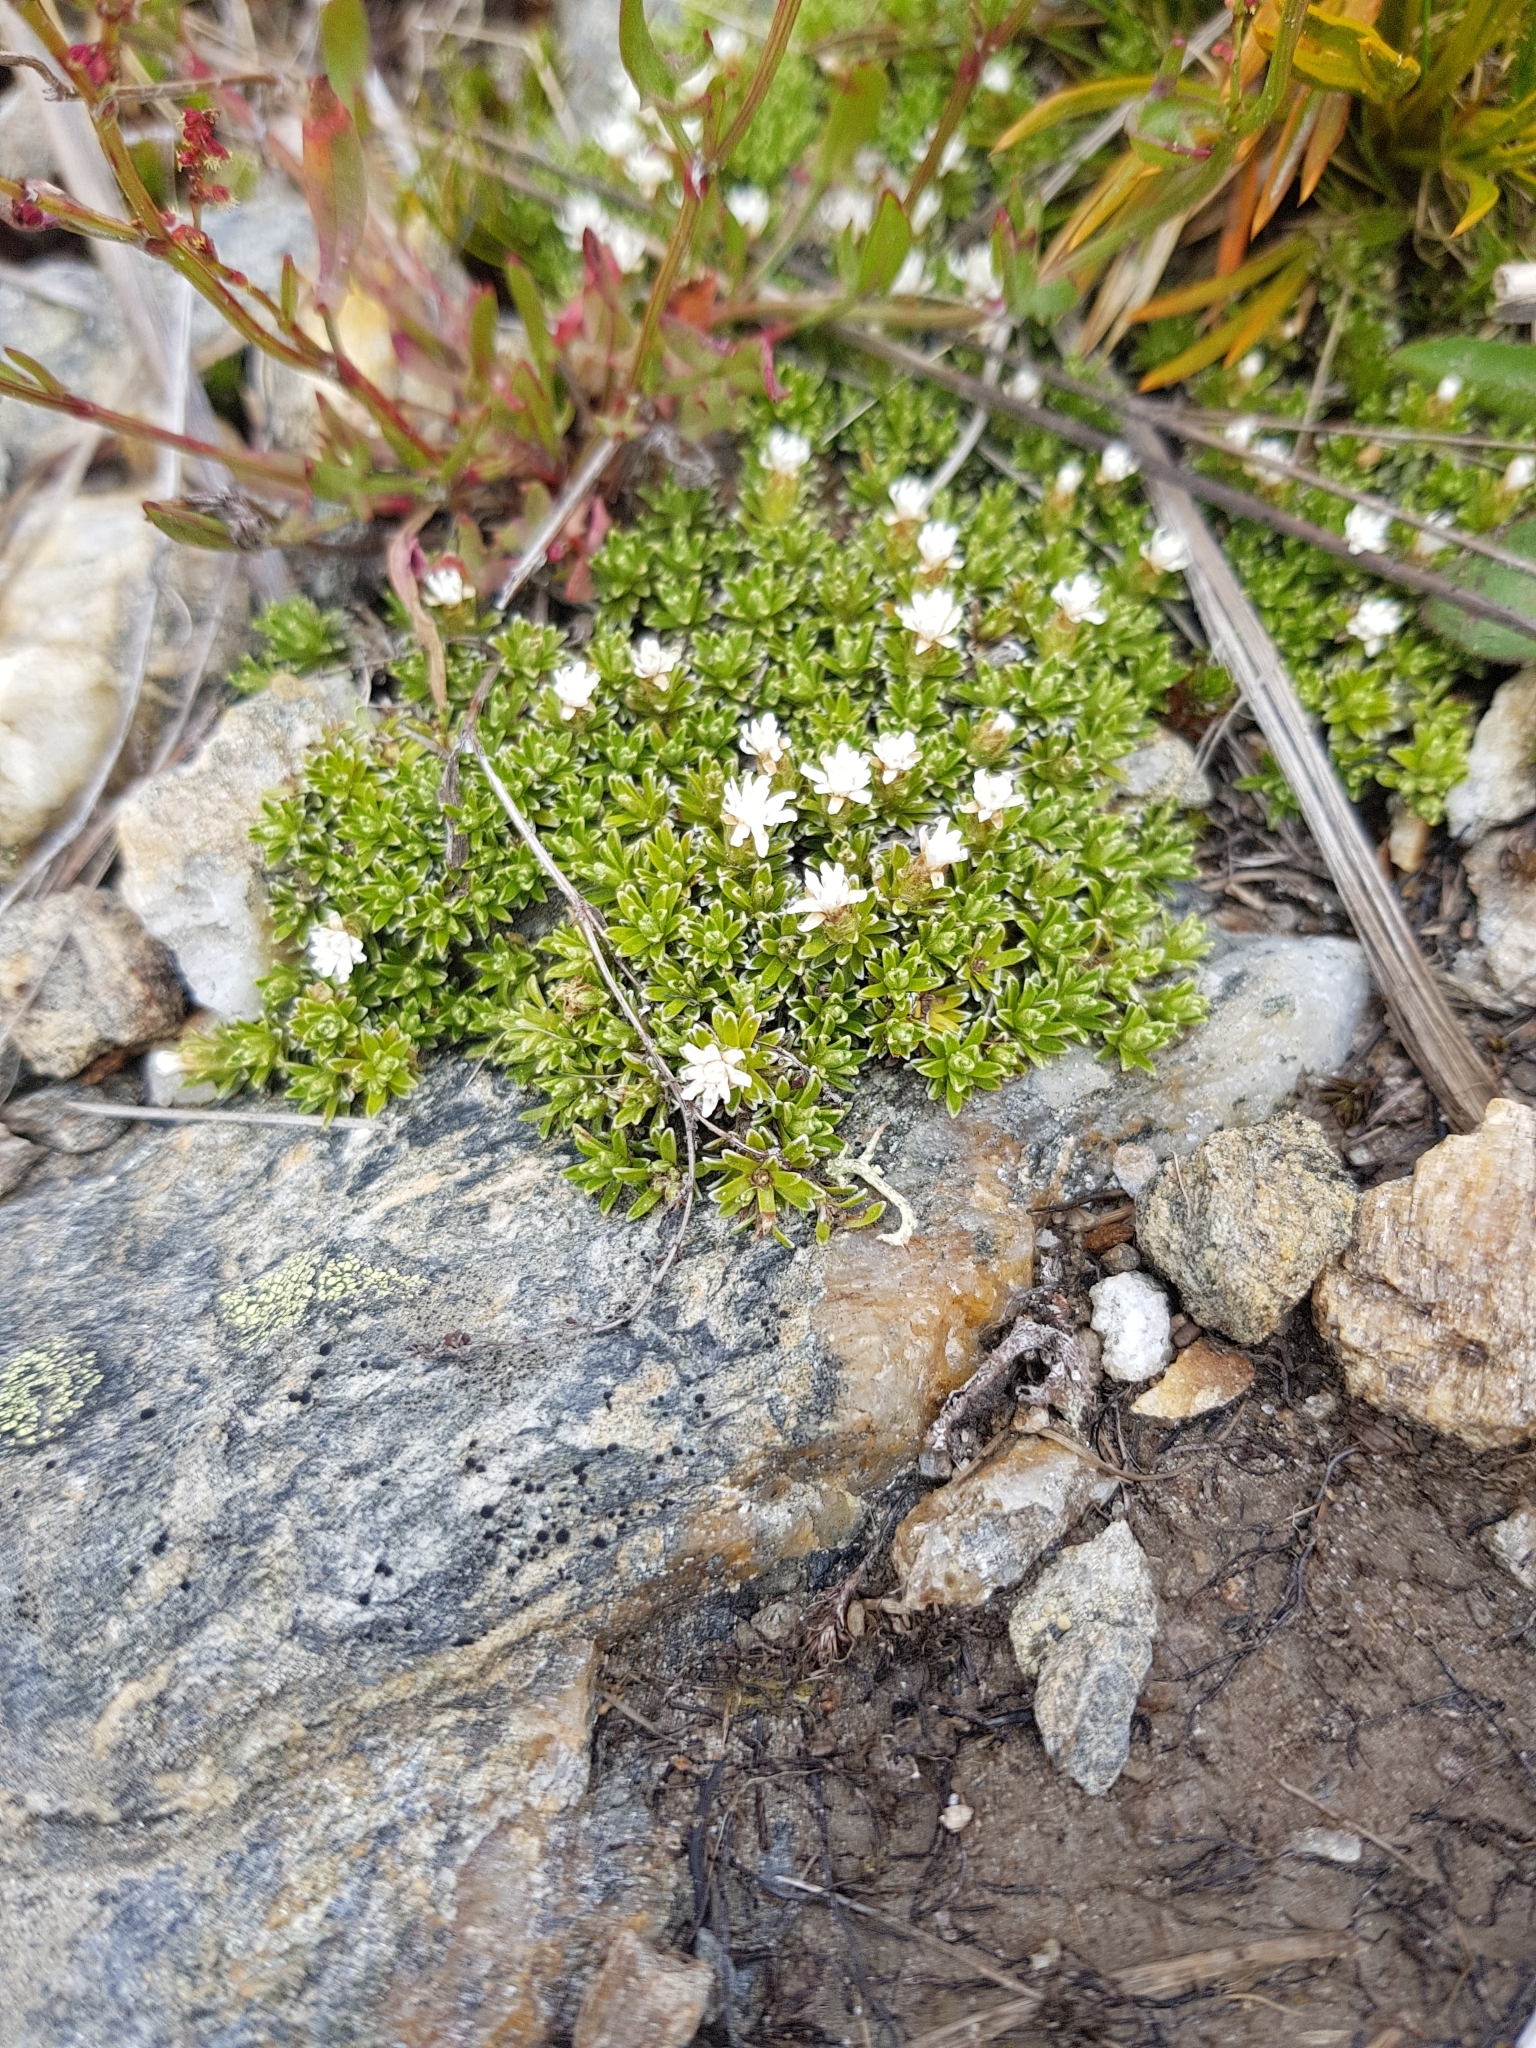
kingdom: Plantae
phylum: Tracheophyta
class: Magnoliopsida
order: Asterales
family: Asteraceae
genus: Raoulia
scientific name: Raoulia subsericea
